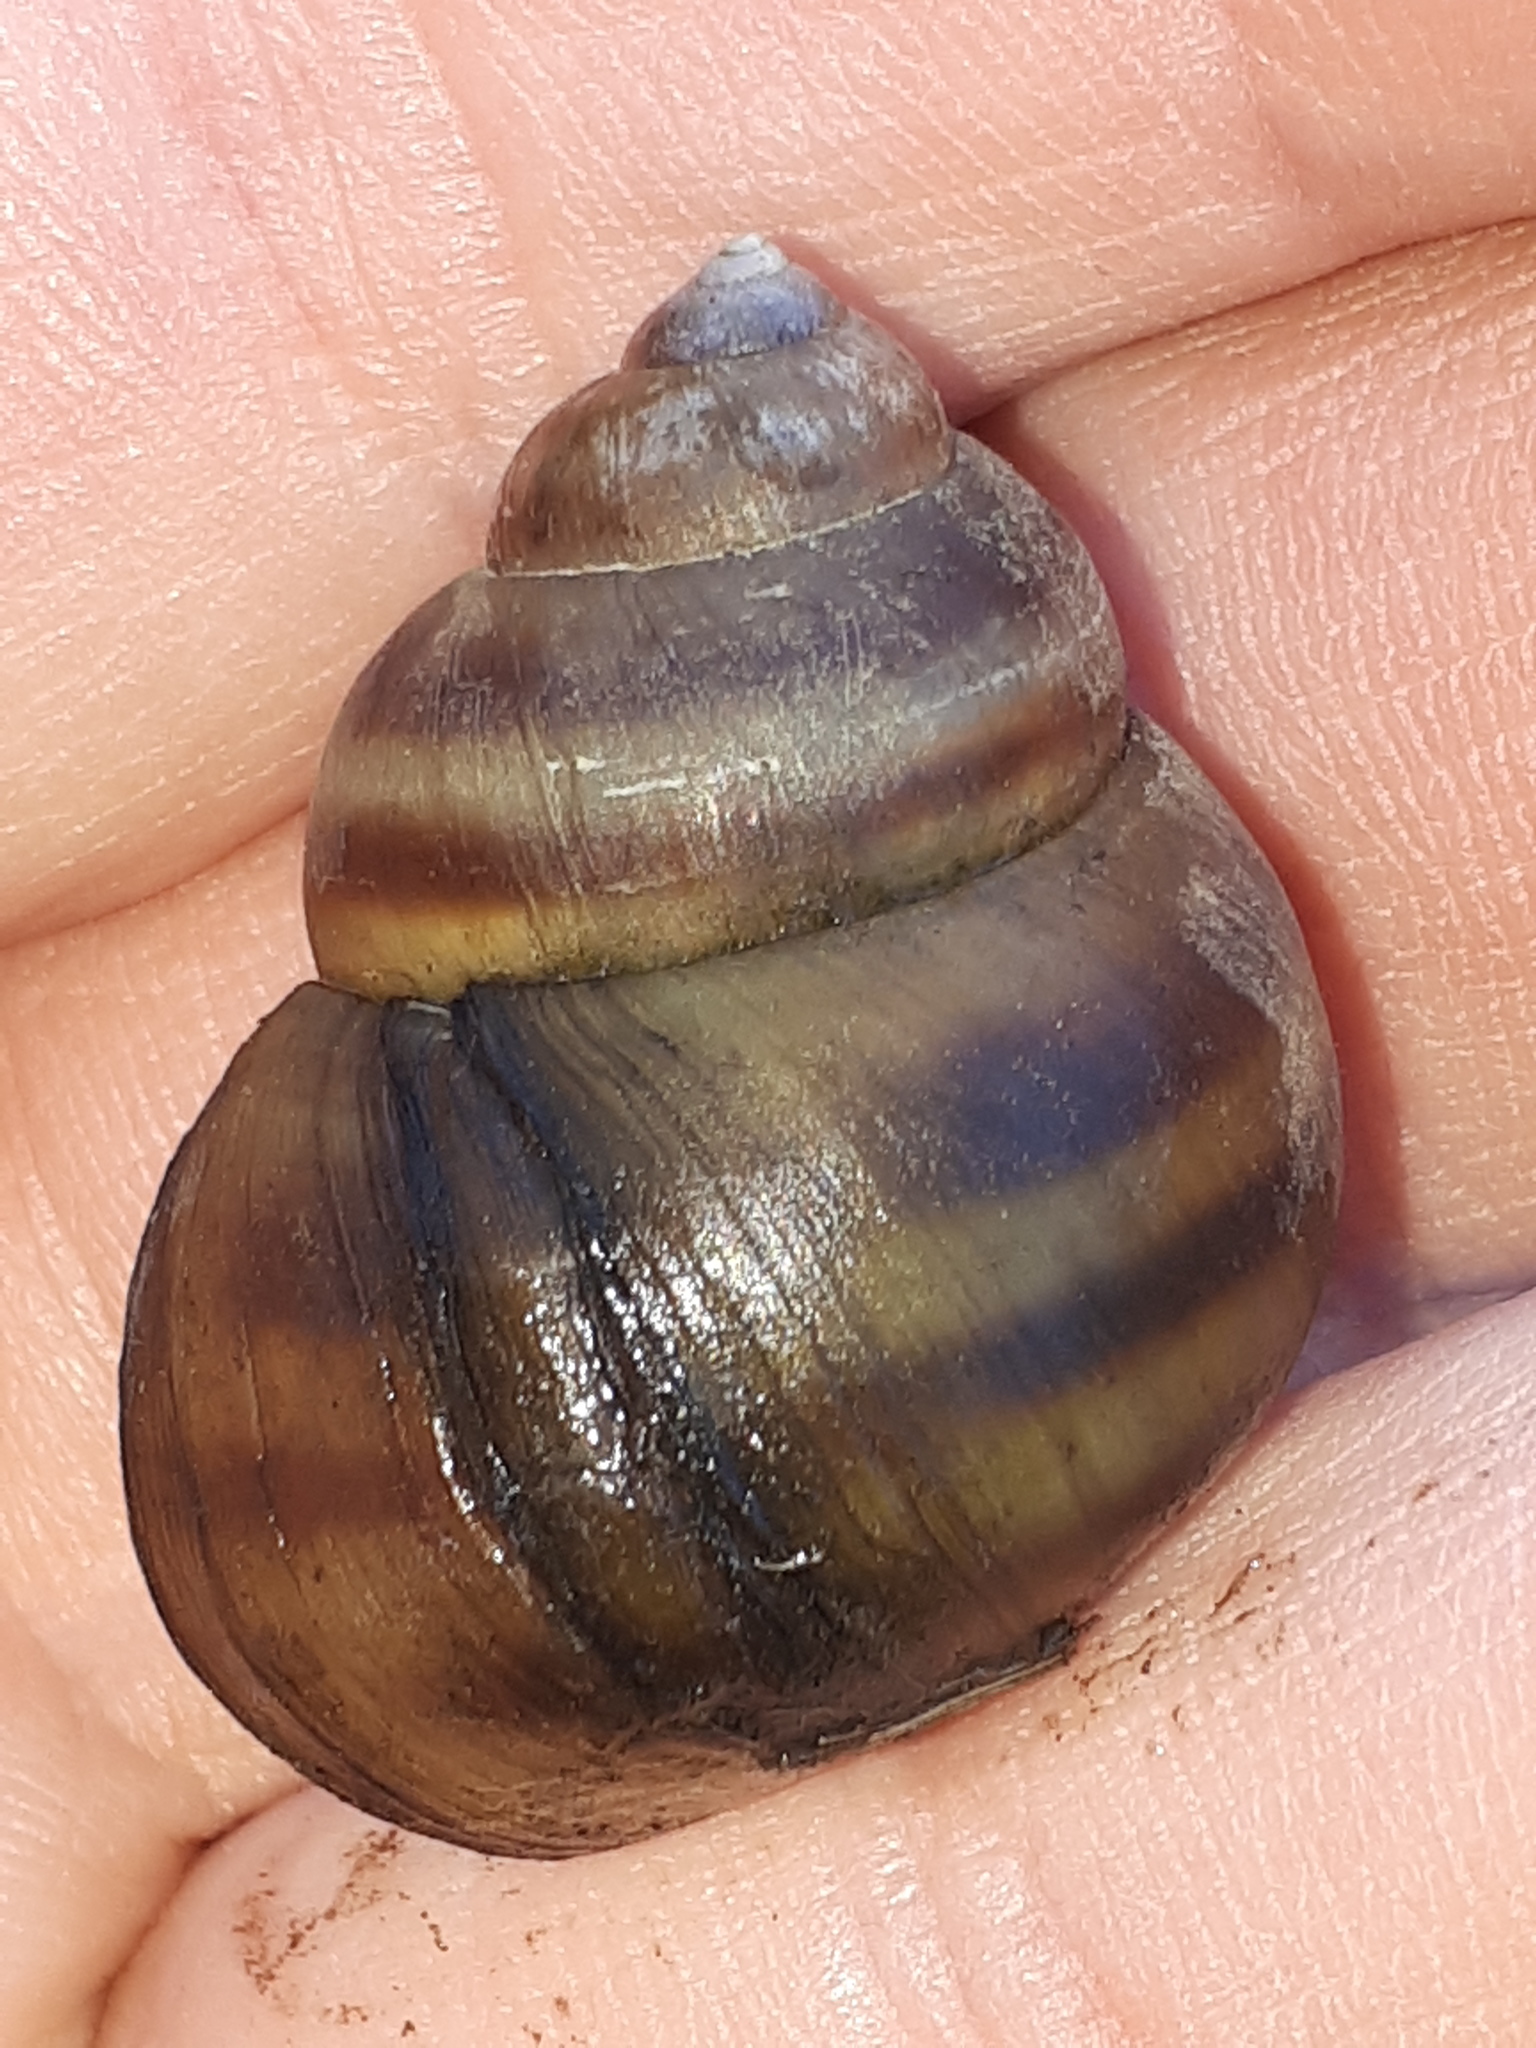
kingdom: Animalia
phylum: Mollusca
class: Gastropoda
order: Architaenioglossa
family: Viviparidae
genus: Viviparus
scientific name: Viviparus acerosus
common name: Danube river snail
